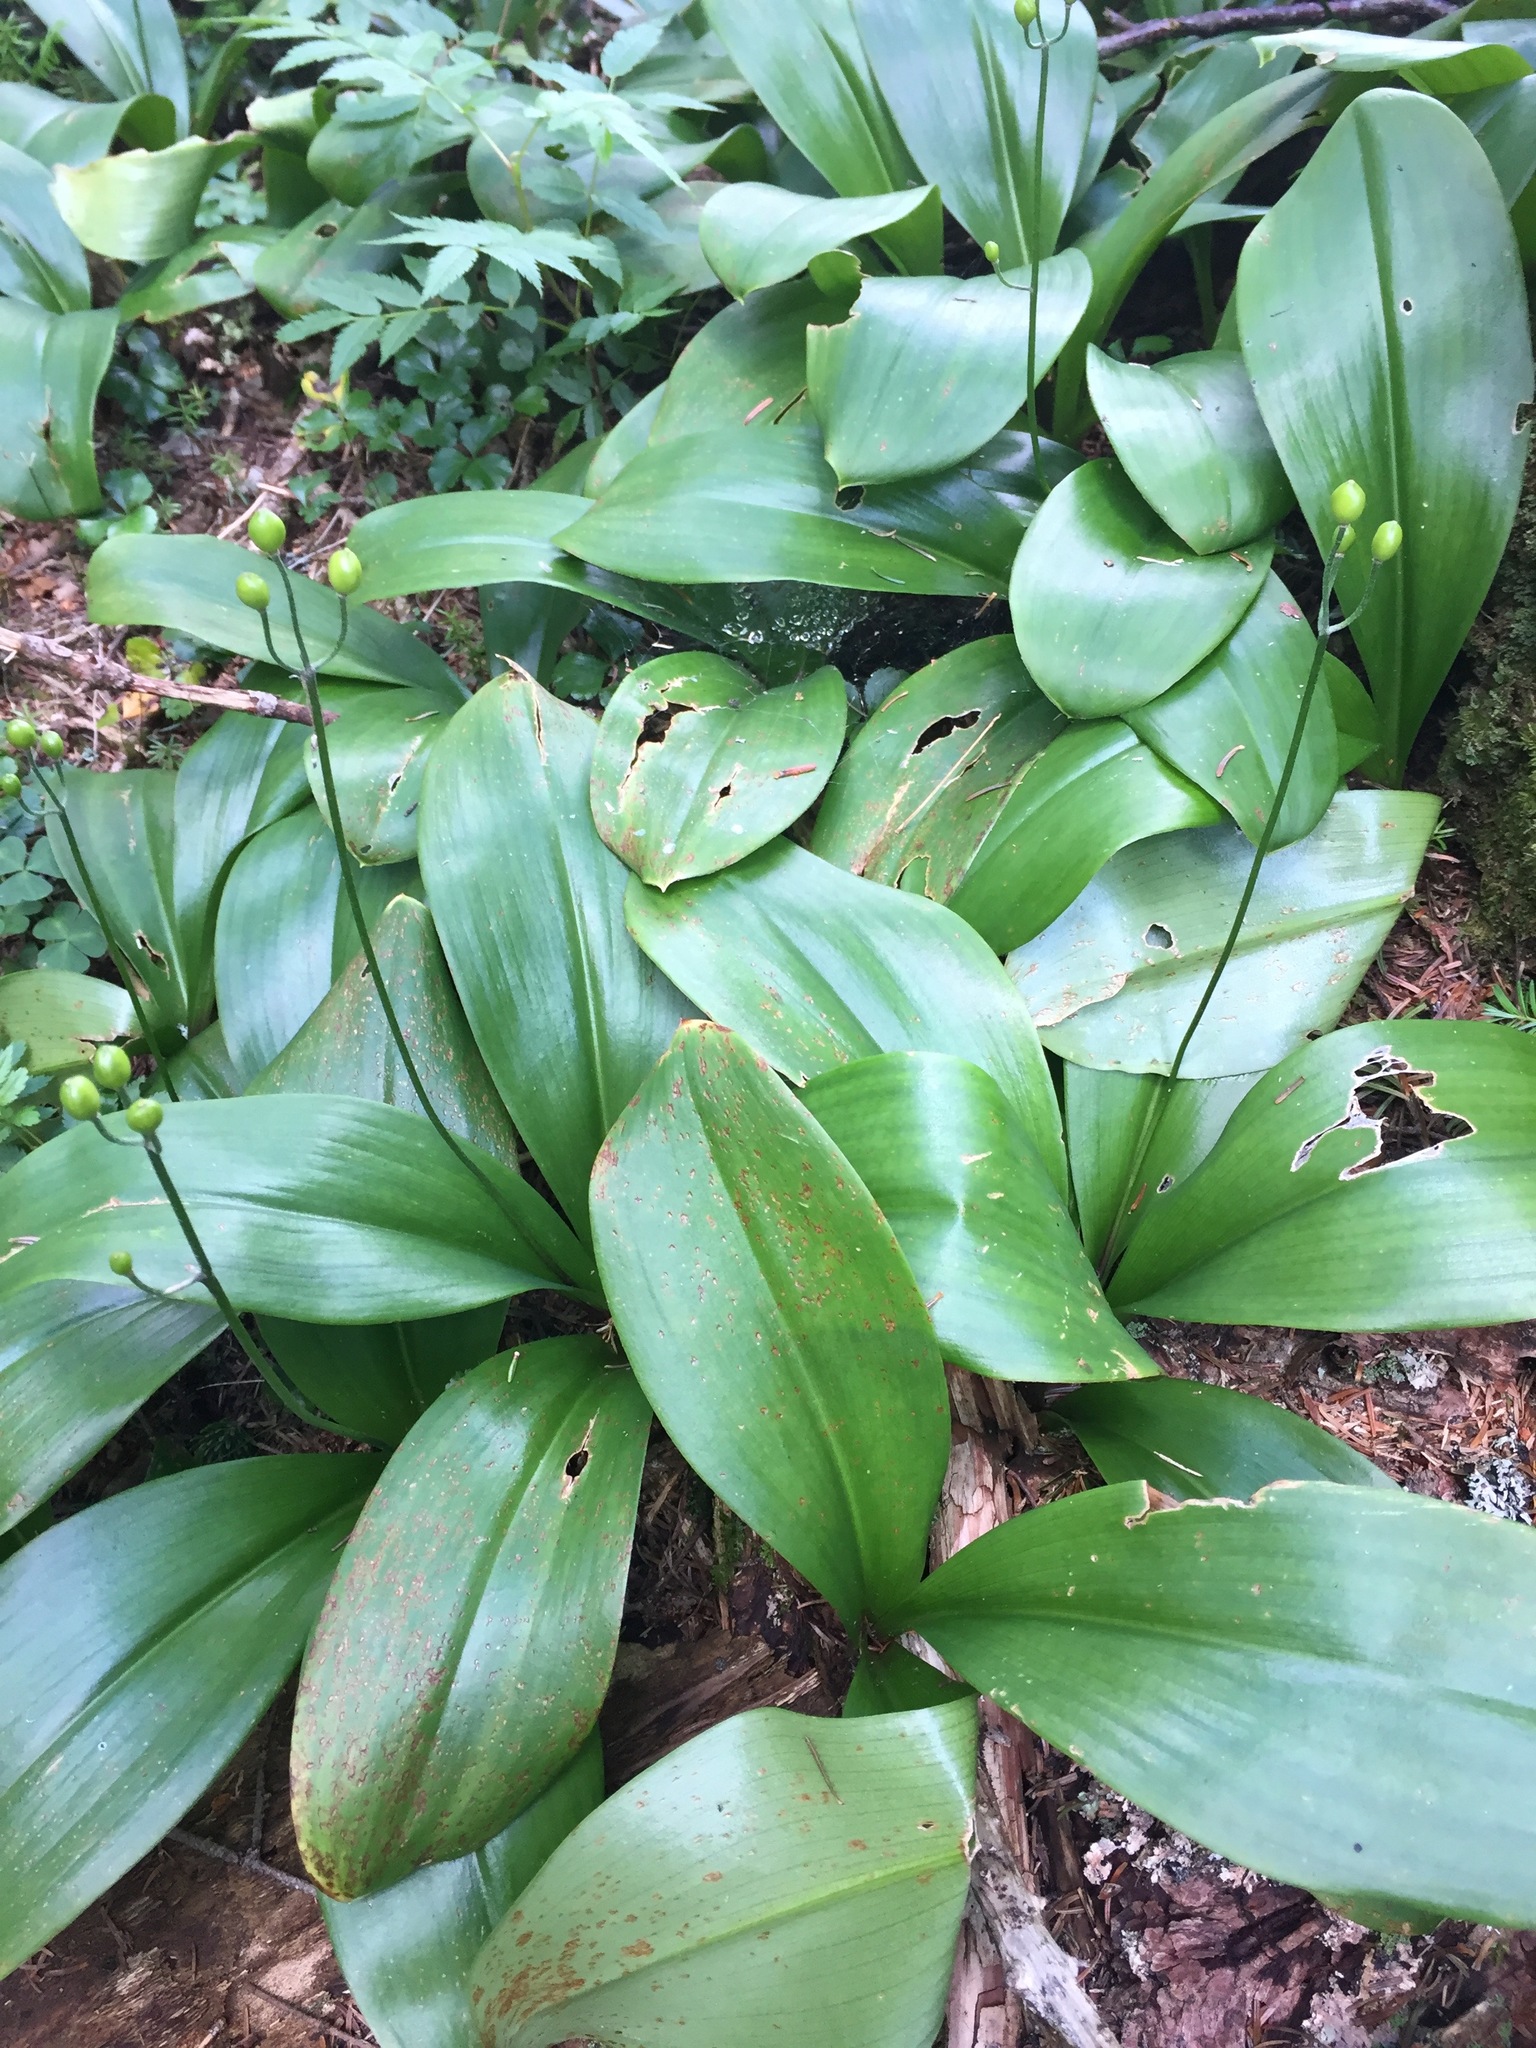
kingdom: Plantae
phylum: Tracheophyta
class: Liliopsida
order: Liliales
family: Liliaceae
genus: Clintonia
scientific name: Clintonia borealis
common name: Yellow clintonia
